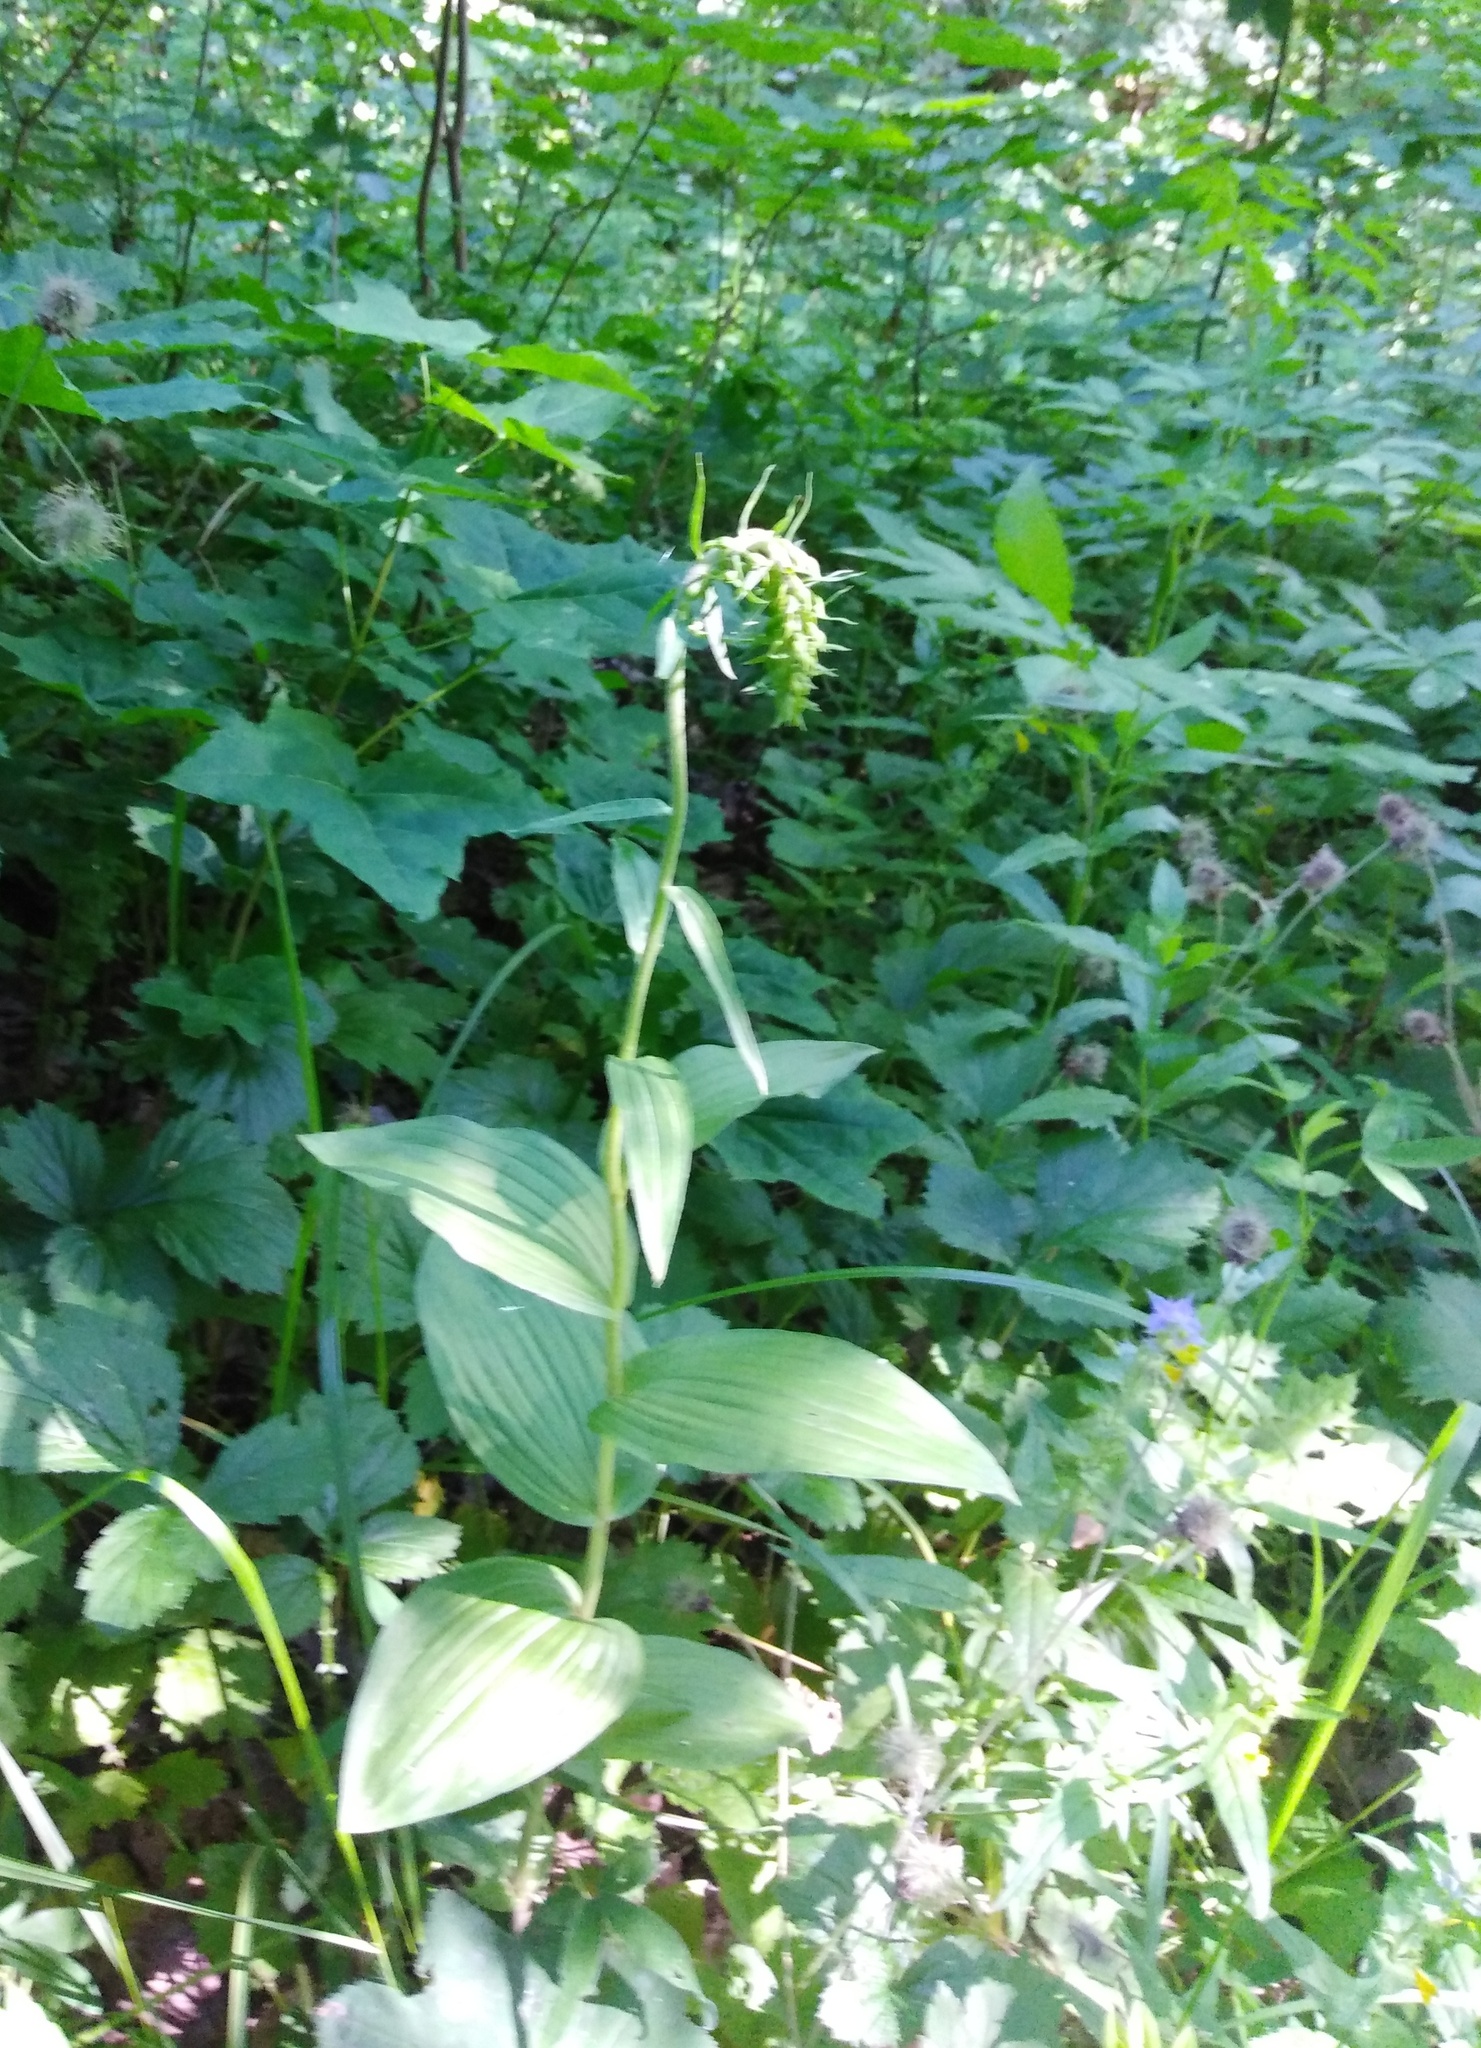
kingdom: Plantae
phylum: Tracheophyta
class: Liliopsida
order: Asparagales
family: Orchidaceae
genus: Epipactis
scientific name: Epipactis helleborine
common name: Broad-leaved helleborine
